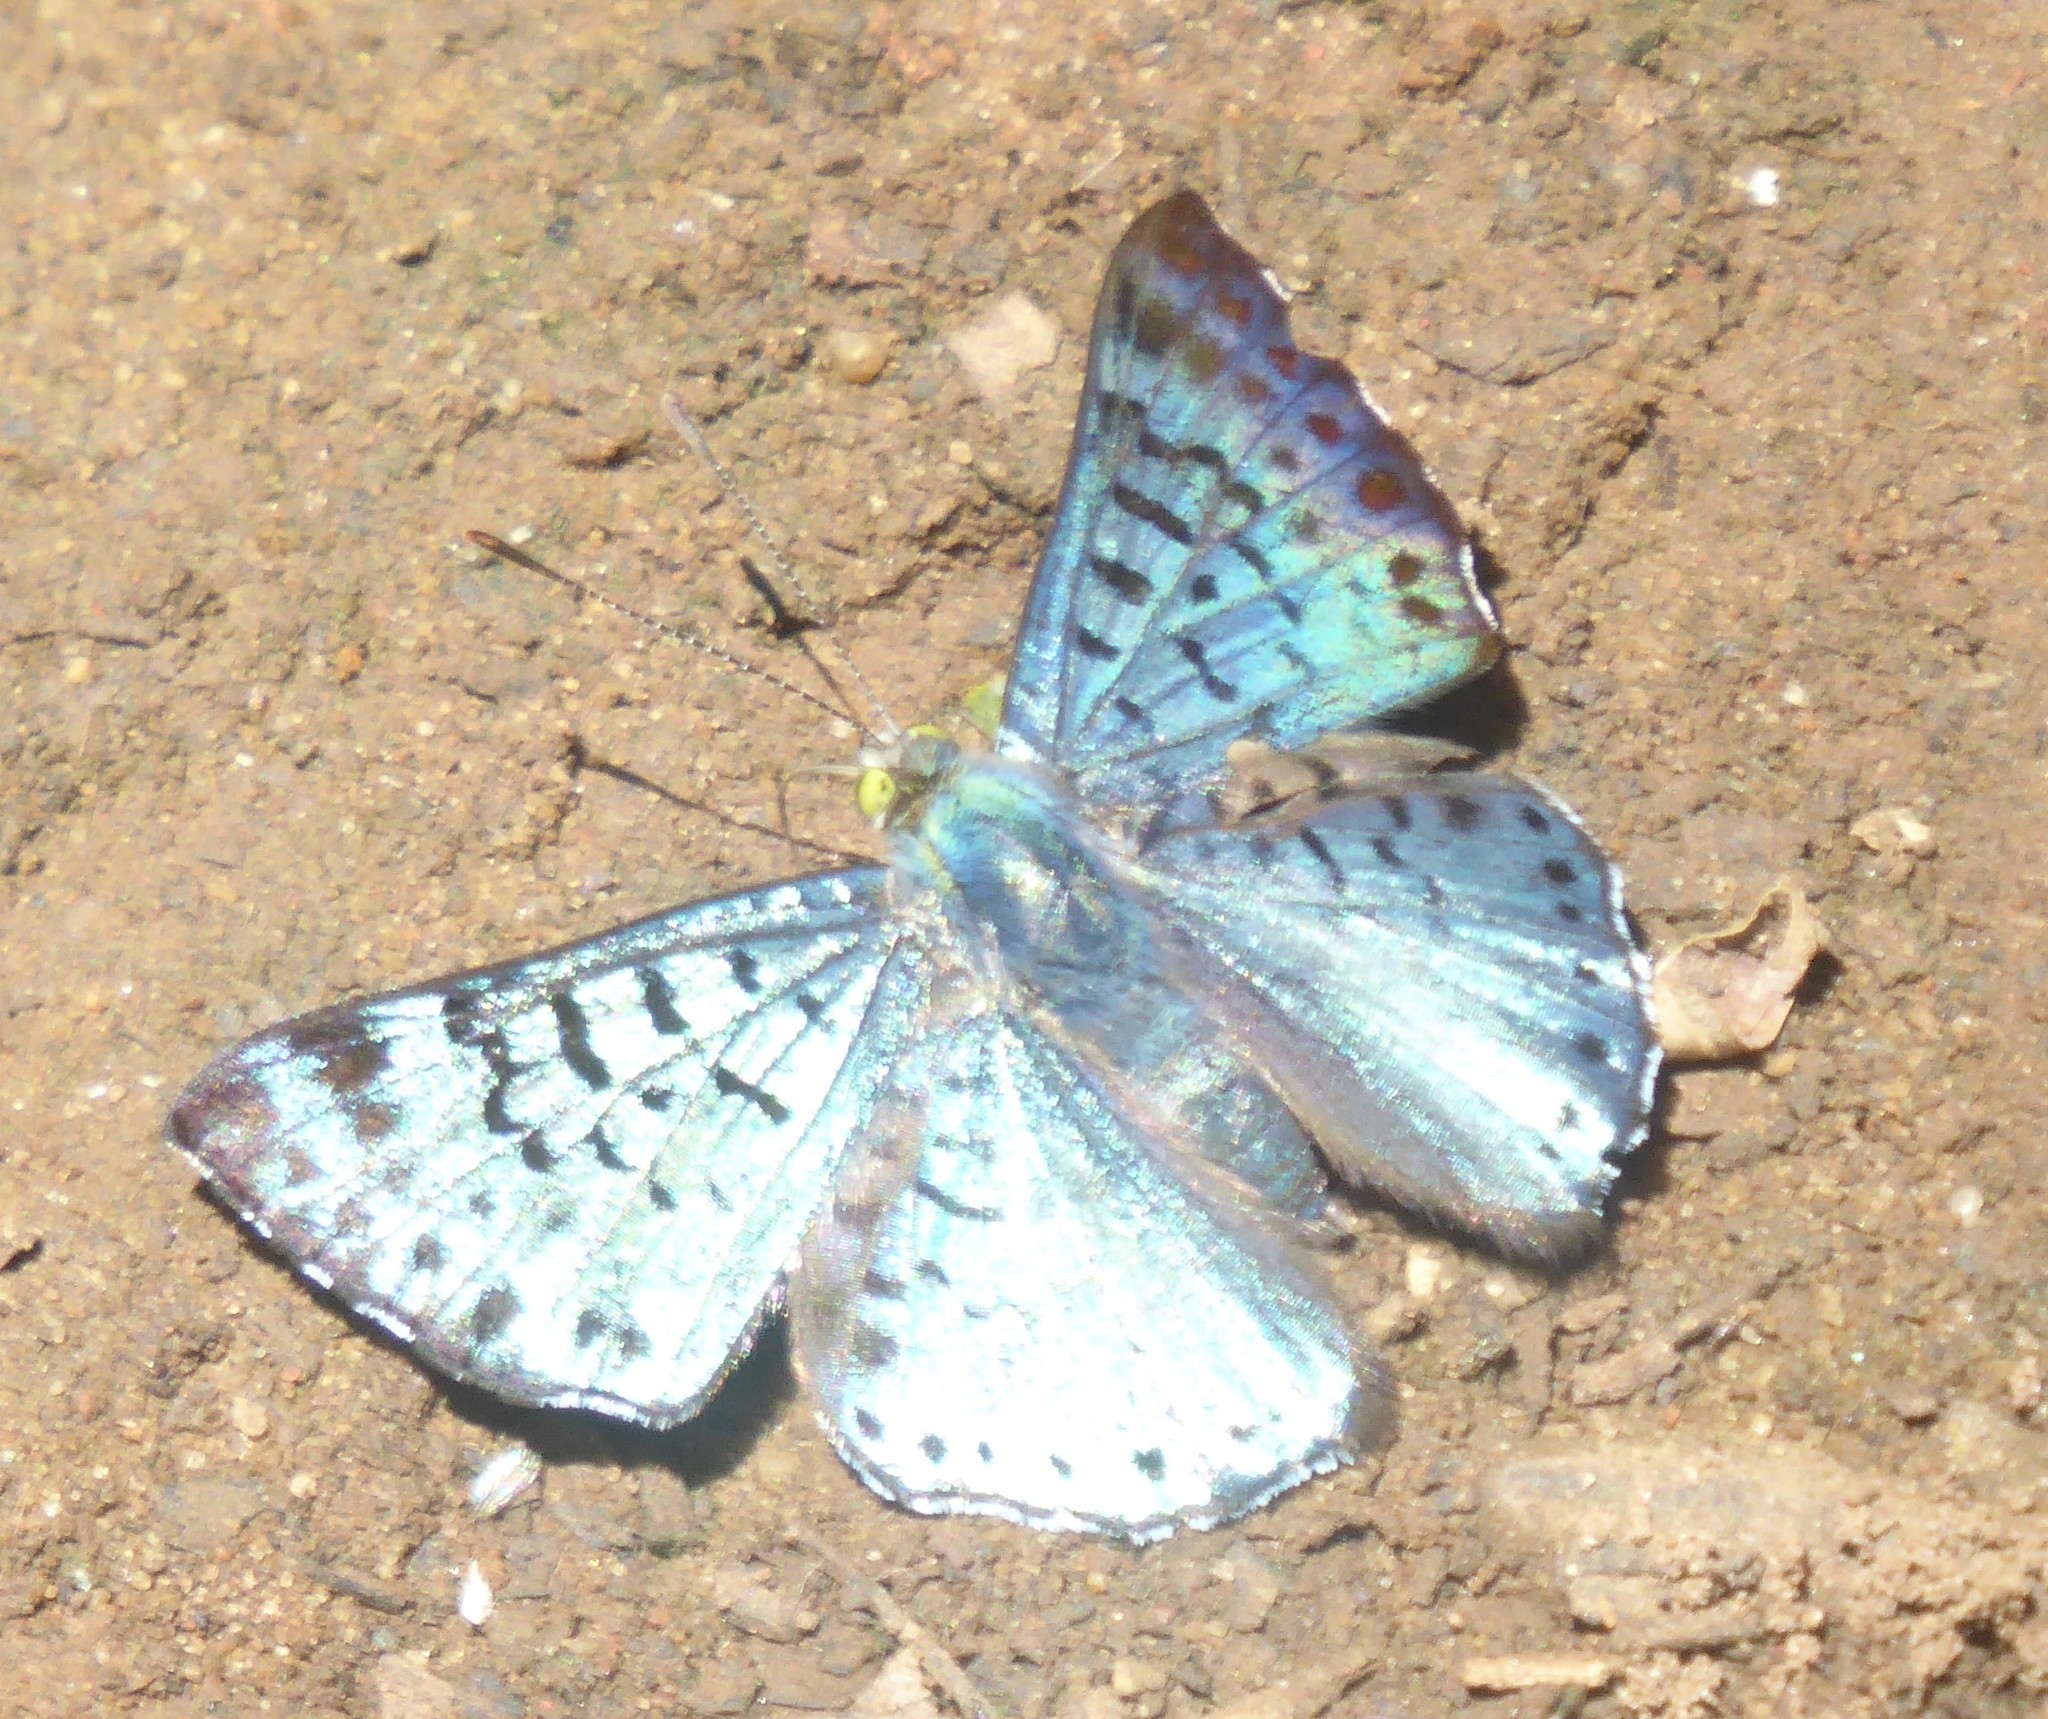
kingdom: Animalia
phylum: Arthropoda
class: Insecta
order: Lepidoptera
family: Riodinidae
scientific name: Riodinidae
